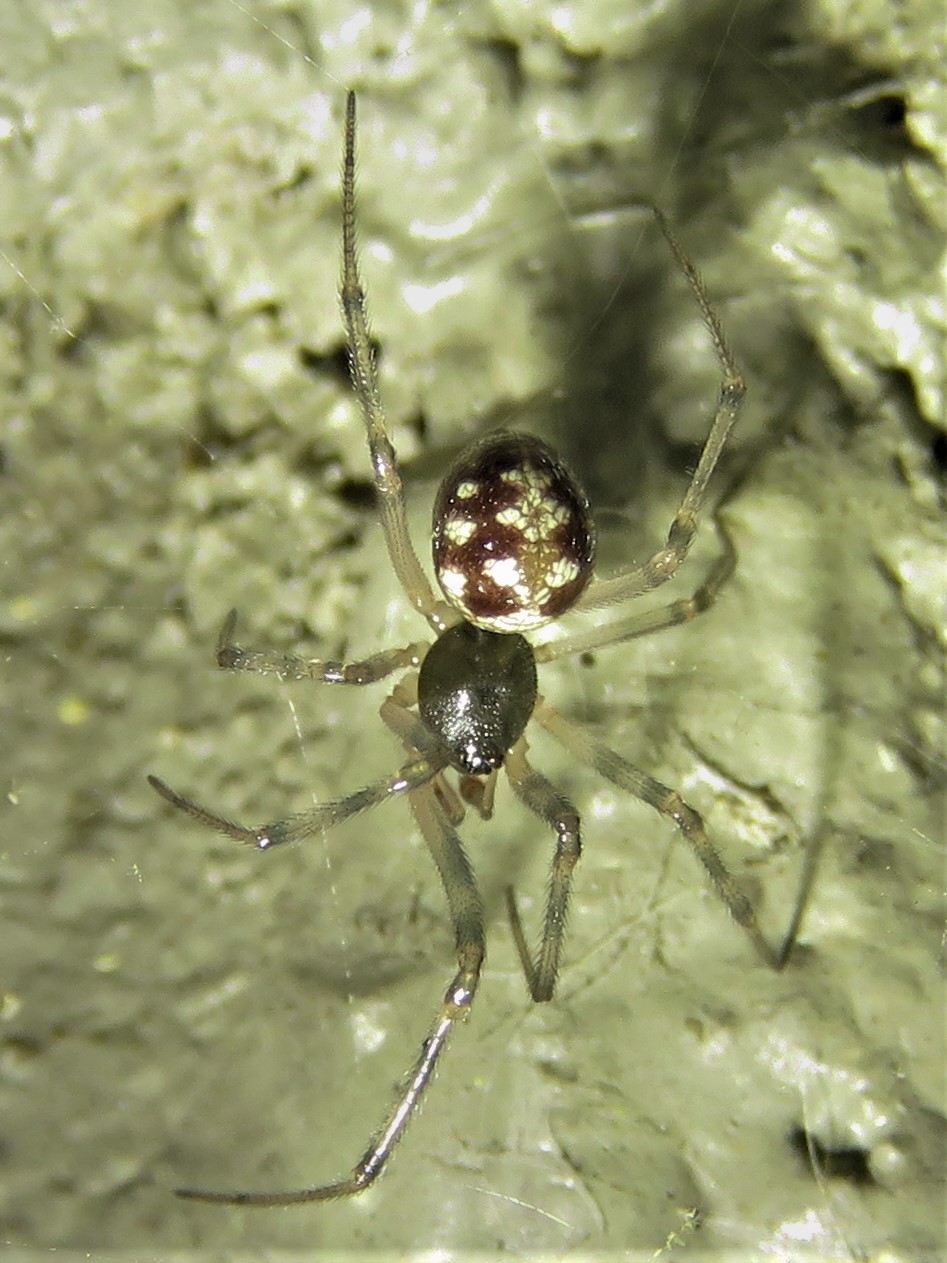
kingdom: Animalia
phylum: Arthropoda
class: Arachnida
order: Araneae
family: Theridiidae
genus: Steatoda
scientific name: Steatoda triangulosa
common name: Triangulate bud spider
